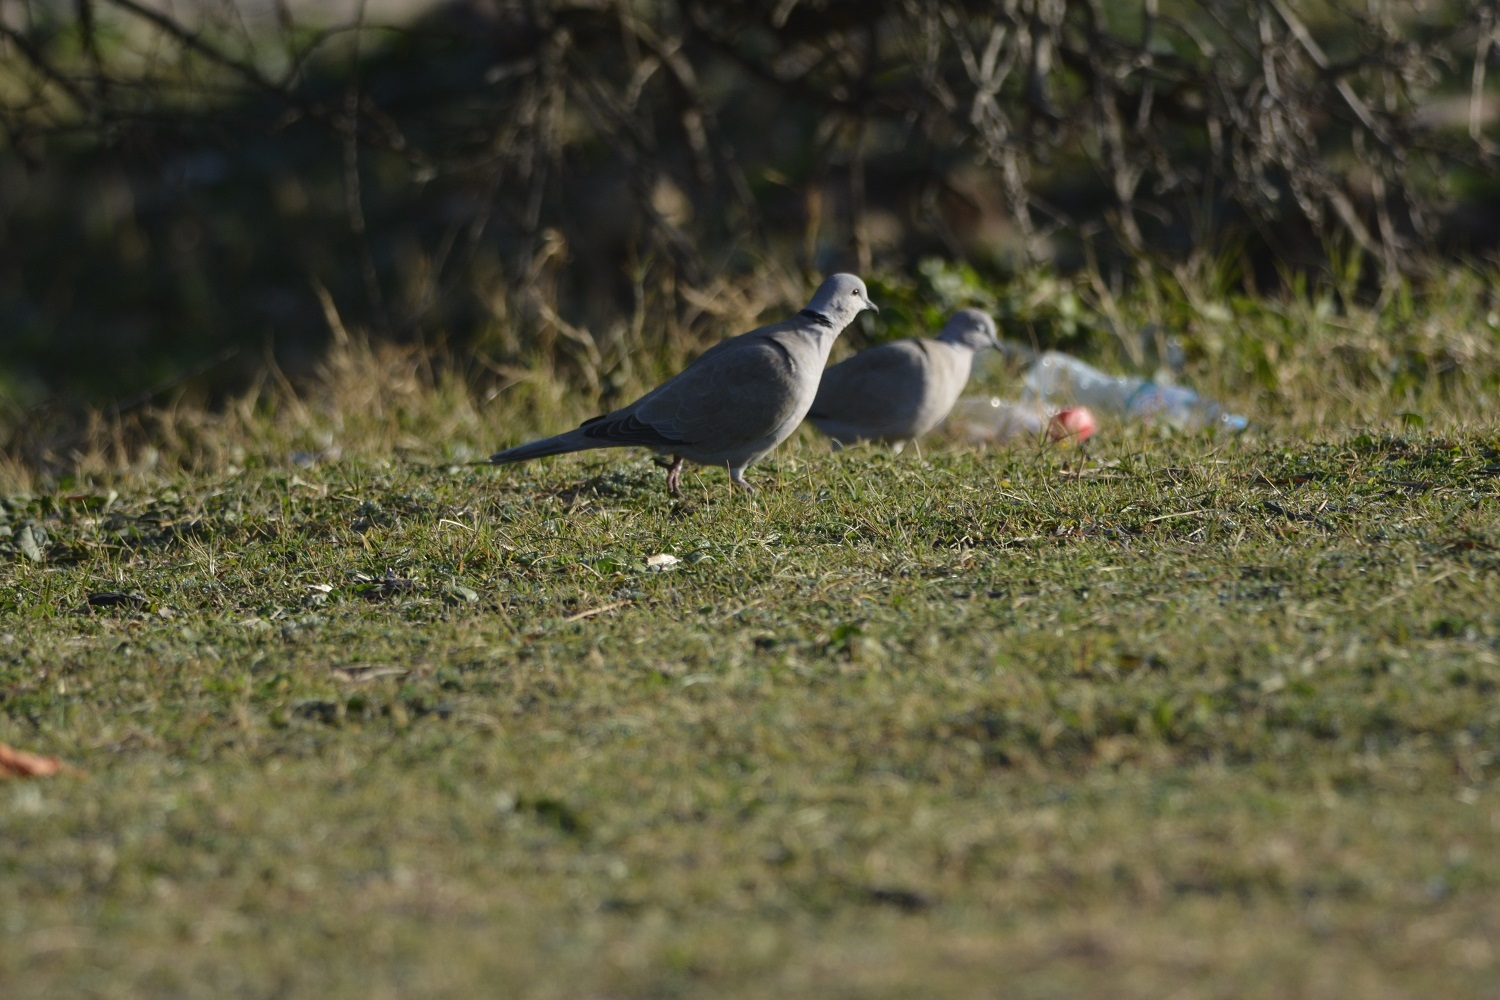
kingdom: Animalia
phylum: Chordata
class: Aves
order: Columbiformes
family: Columbidae
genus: Streptopelia
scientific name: Streptopelia decaocto
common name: Eurasian collared dove
